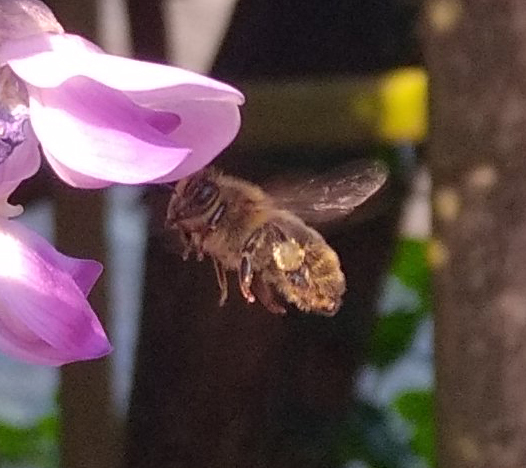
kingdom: Animalia
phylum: Arthropoda
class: Insecta
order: Hymenoptera
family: Apidae
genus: Apis
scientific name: Apis mellifera
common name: Honey bee
